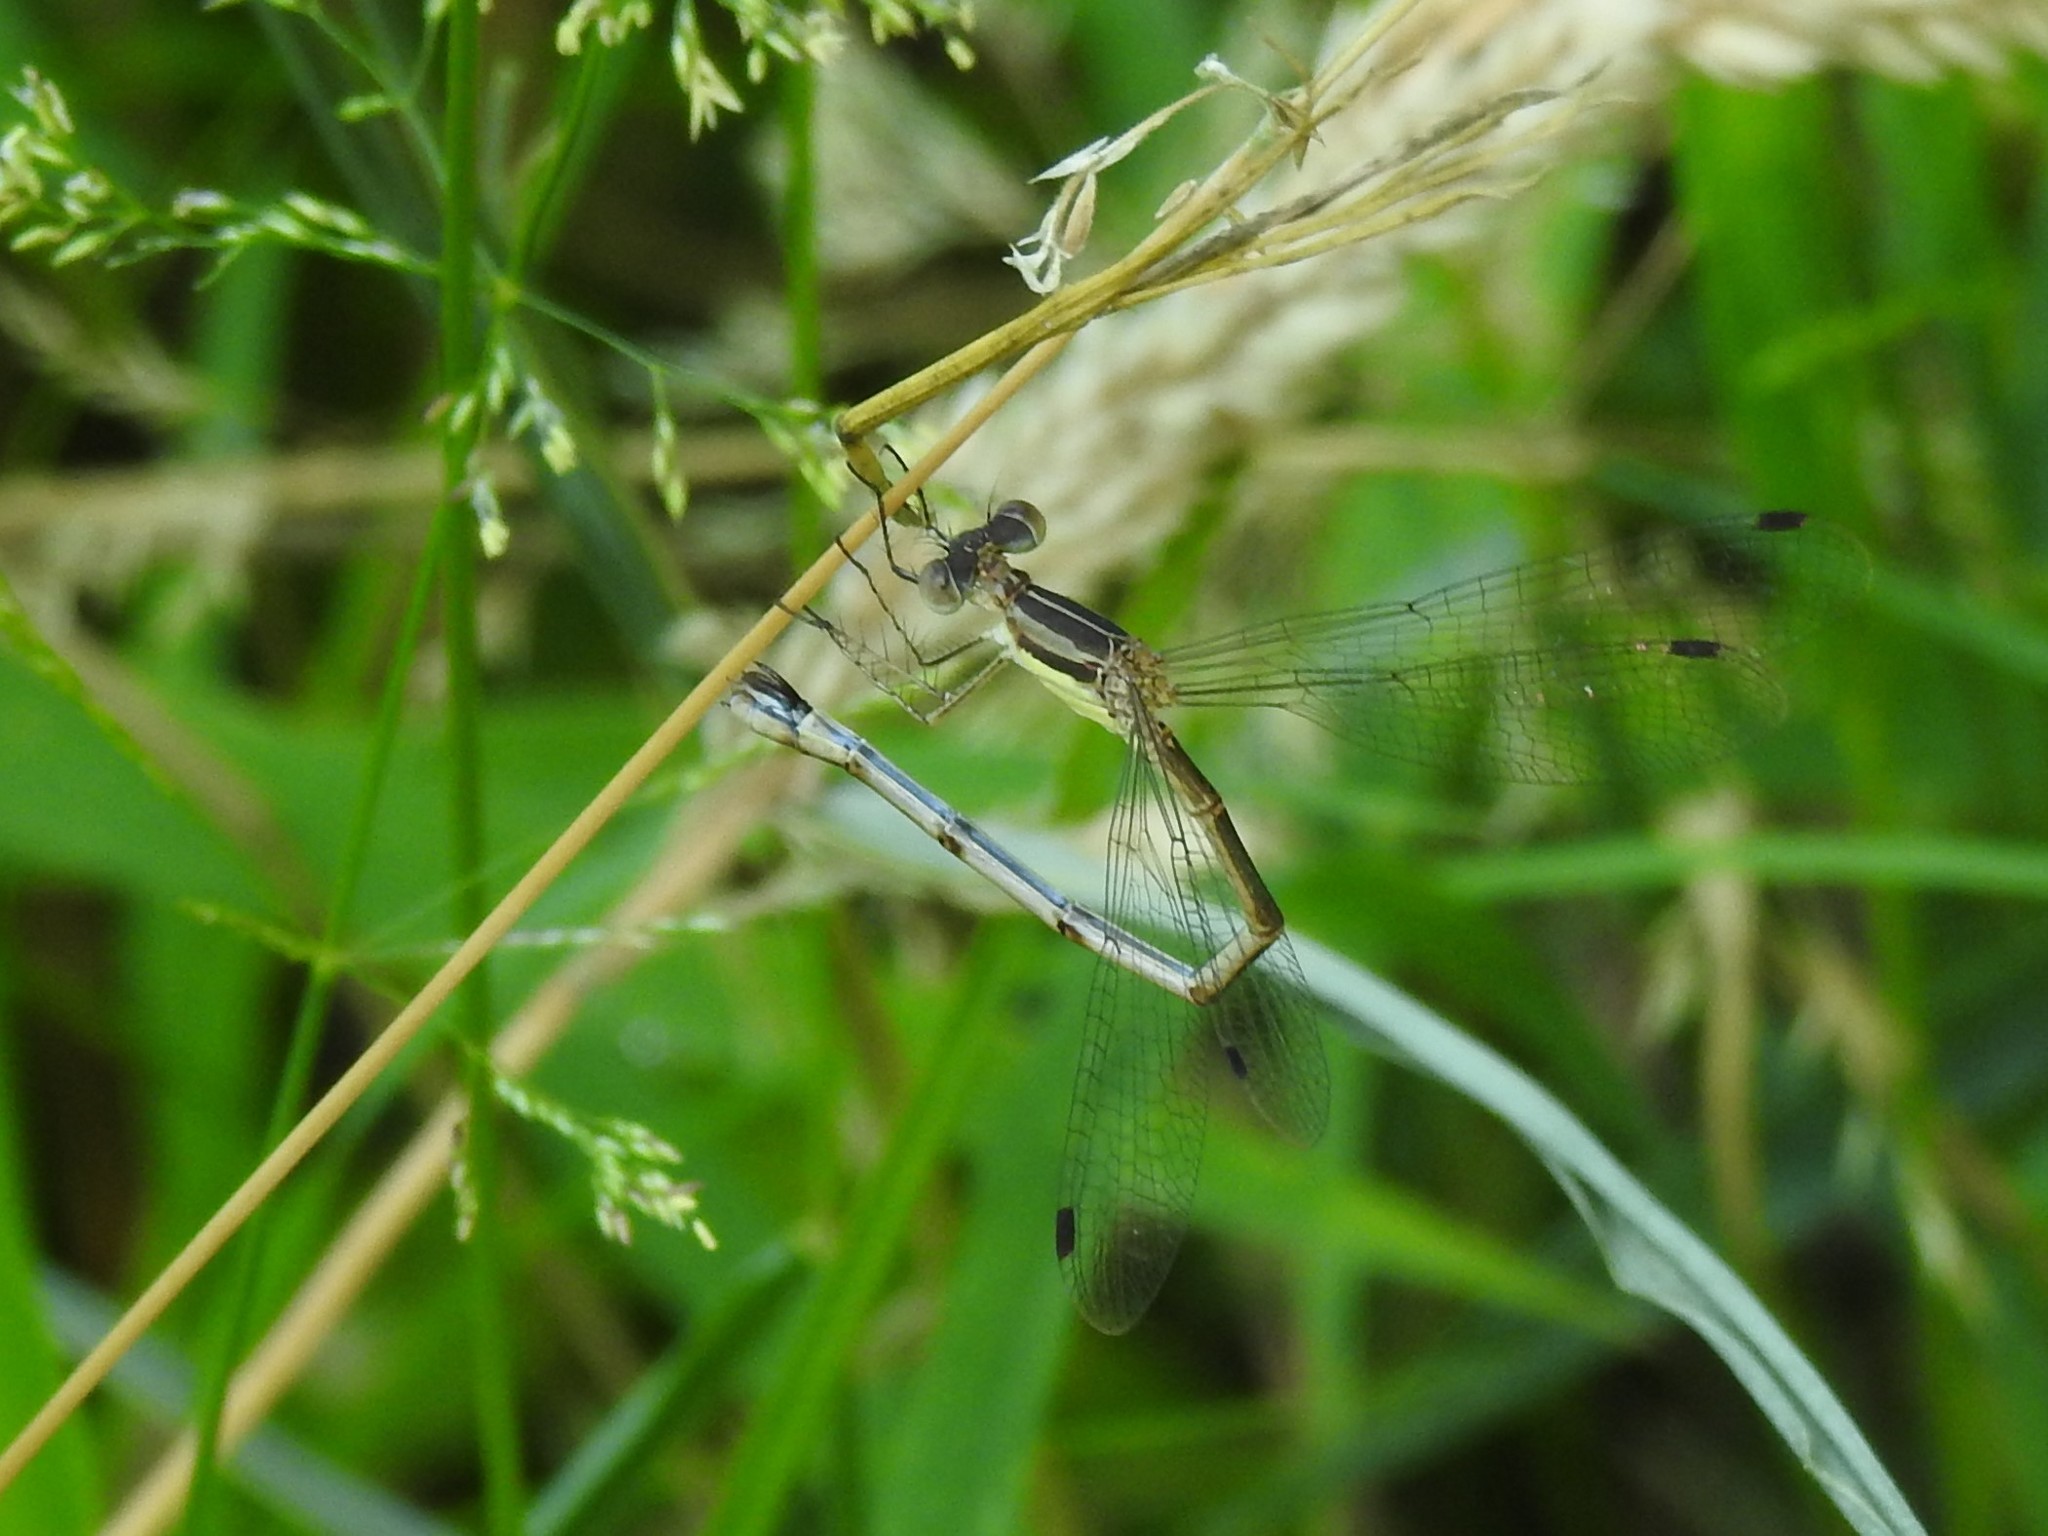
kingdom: Animalia
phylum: Arthropoda
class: Insecta
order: Odonata
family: Lestidae
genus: Lestes
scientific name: Lestes rectangularis
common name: Slender spreadwing
